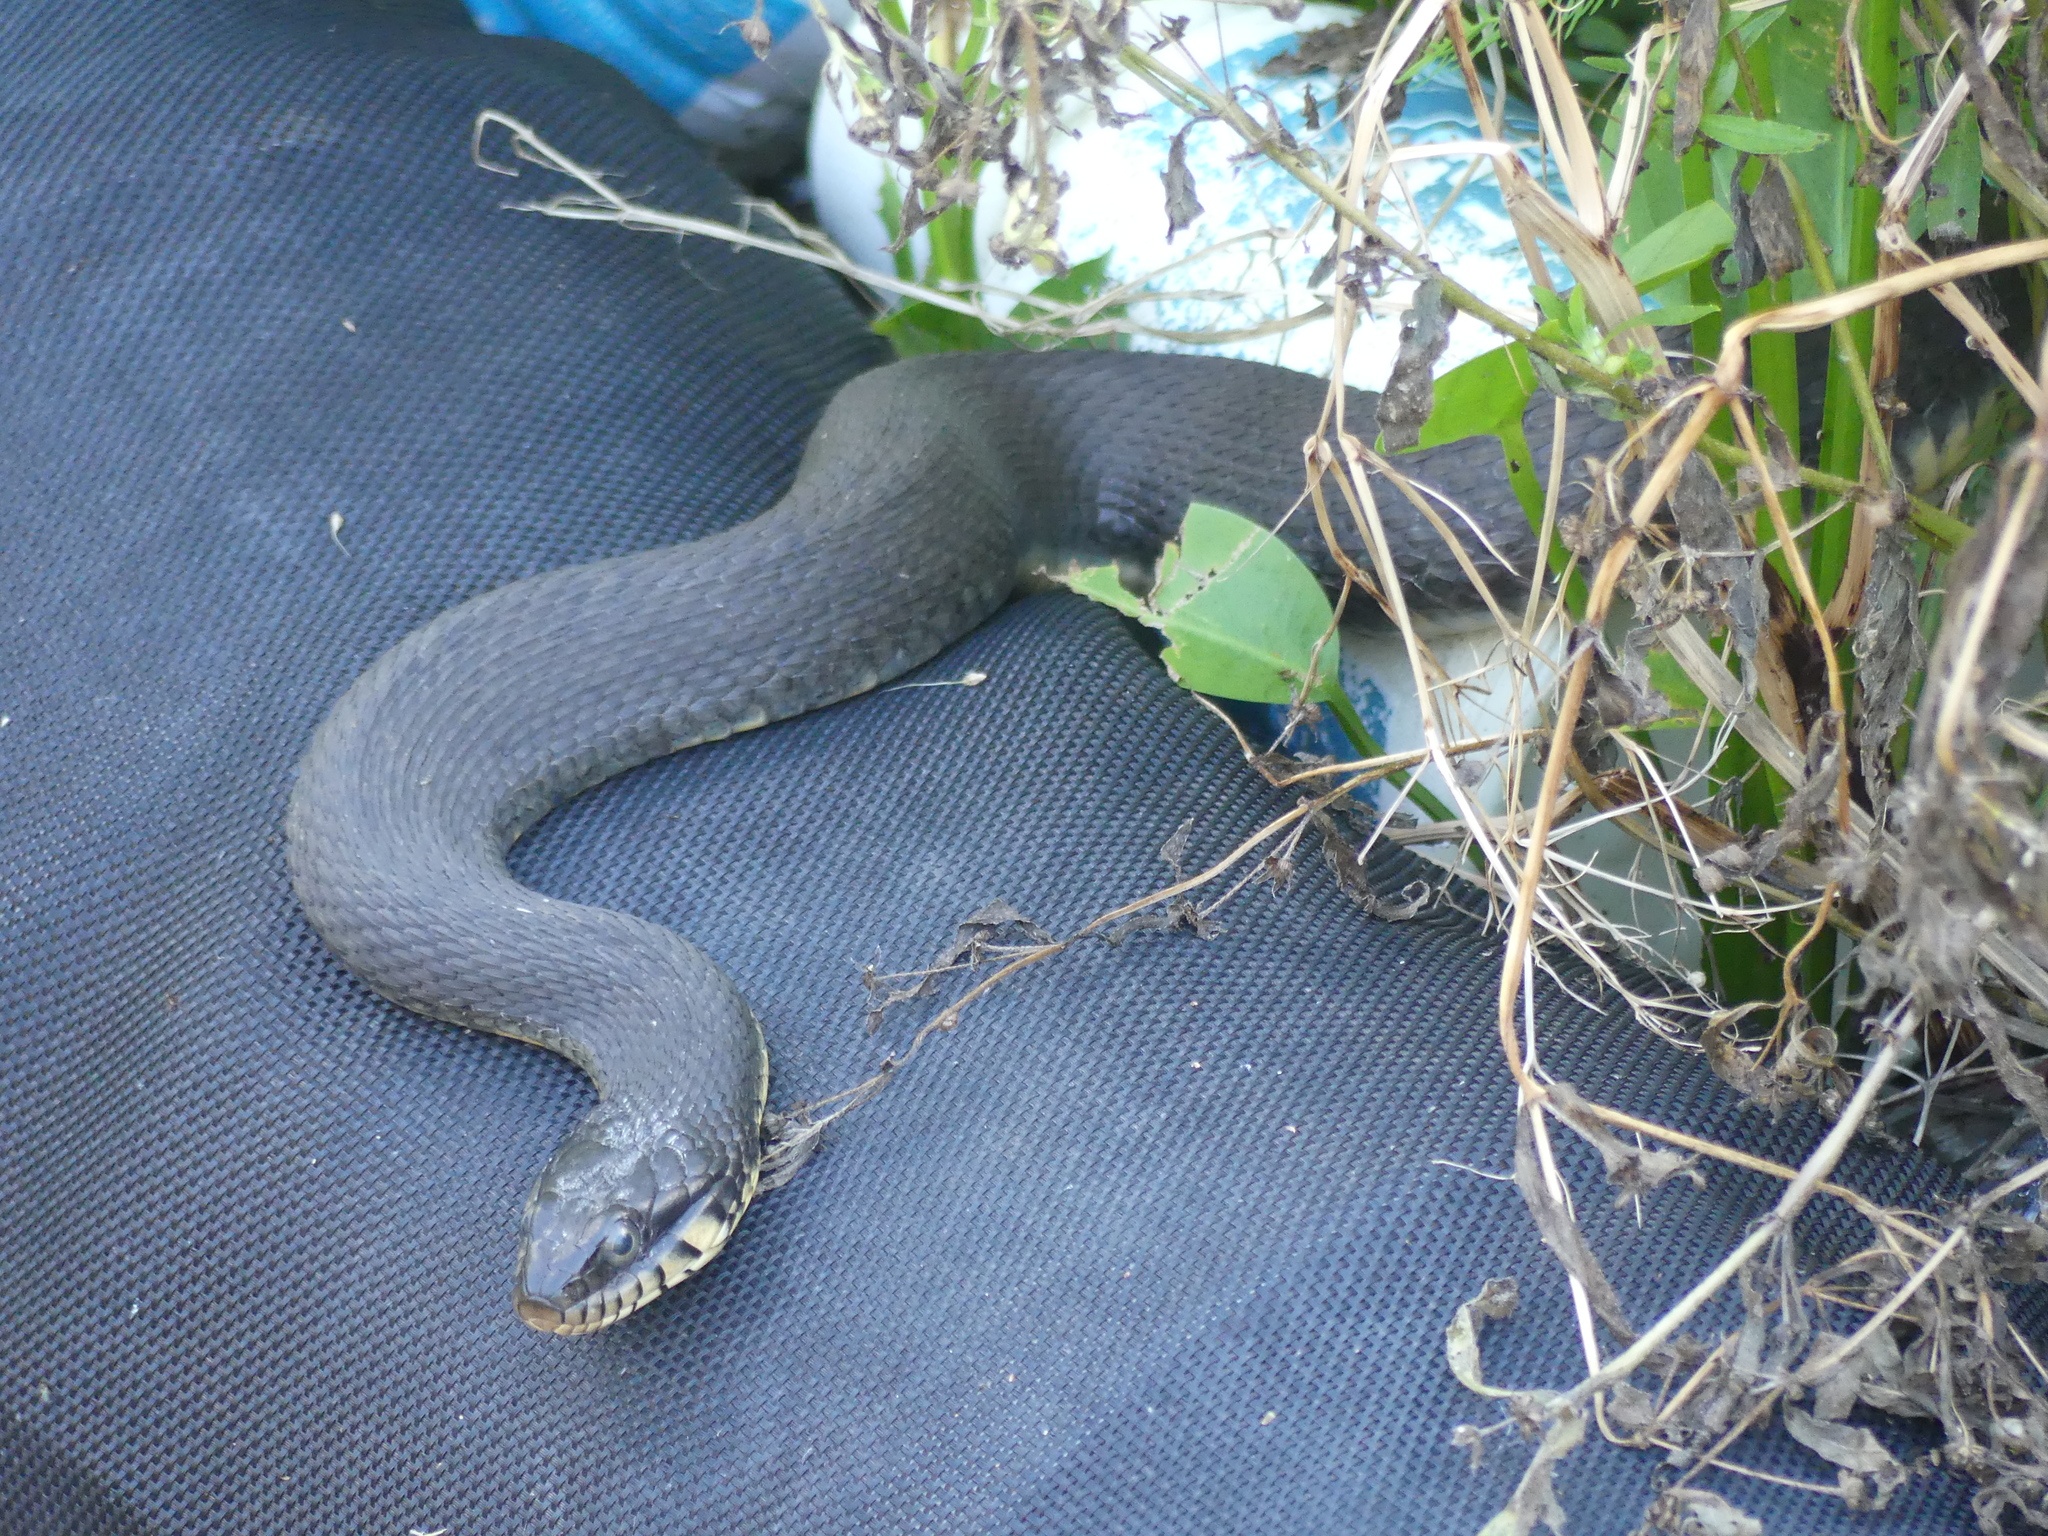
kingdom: Animalia
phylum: Chordata
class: Squamata
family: Colubridae
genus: Nerodia
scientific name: Nerodia erythrogaster
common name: Plainbelly water snake
